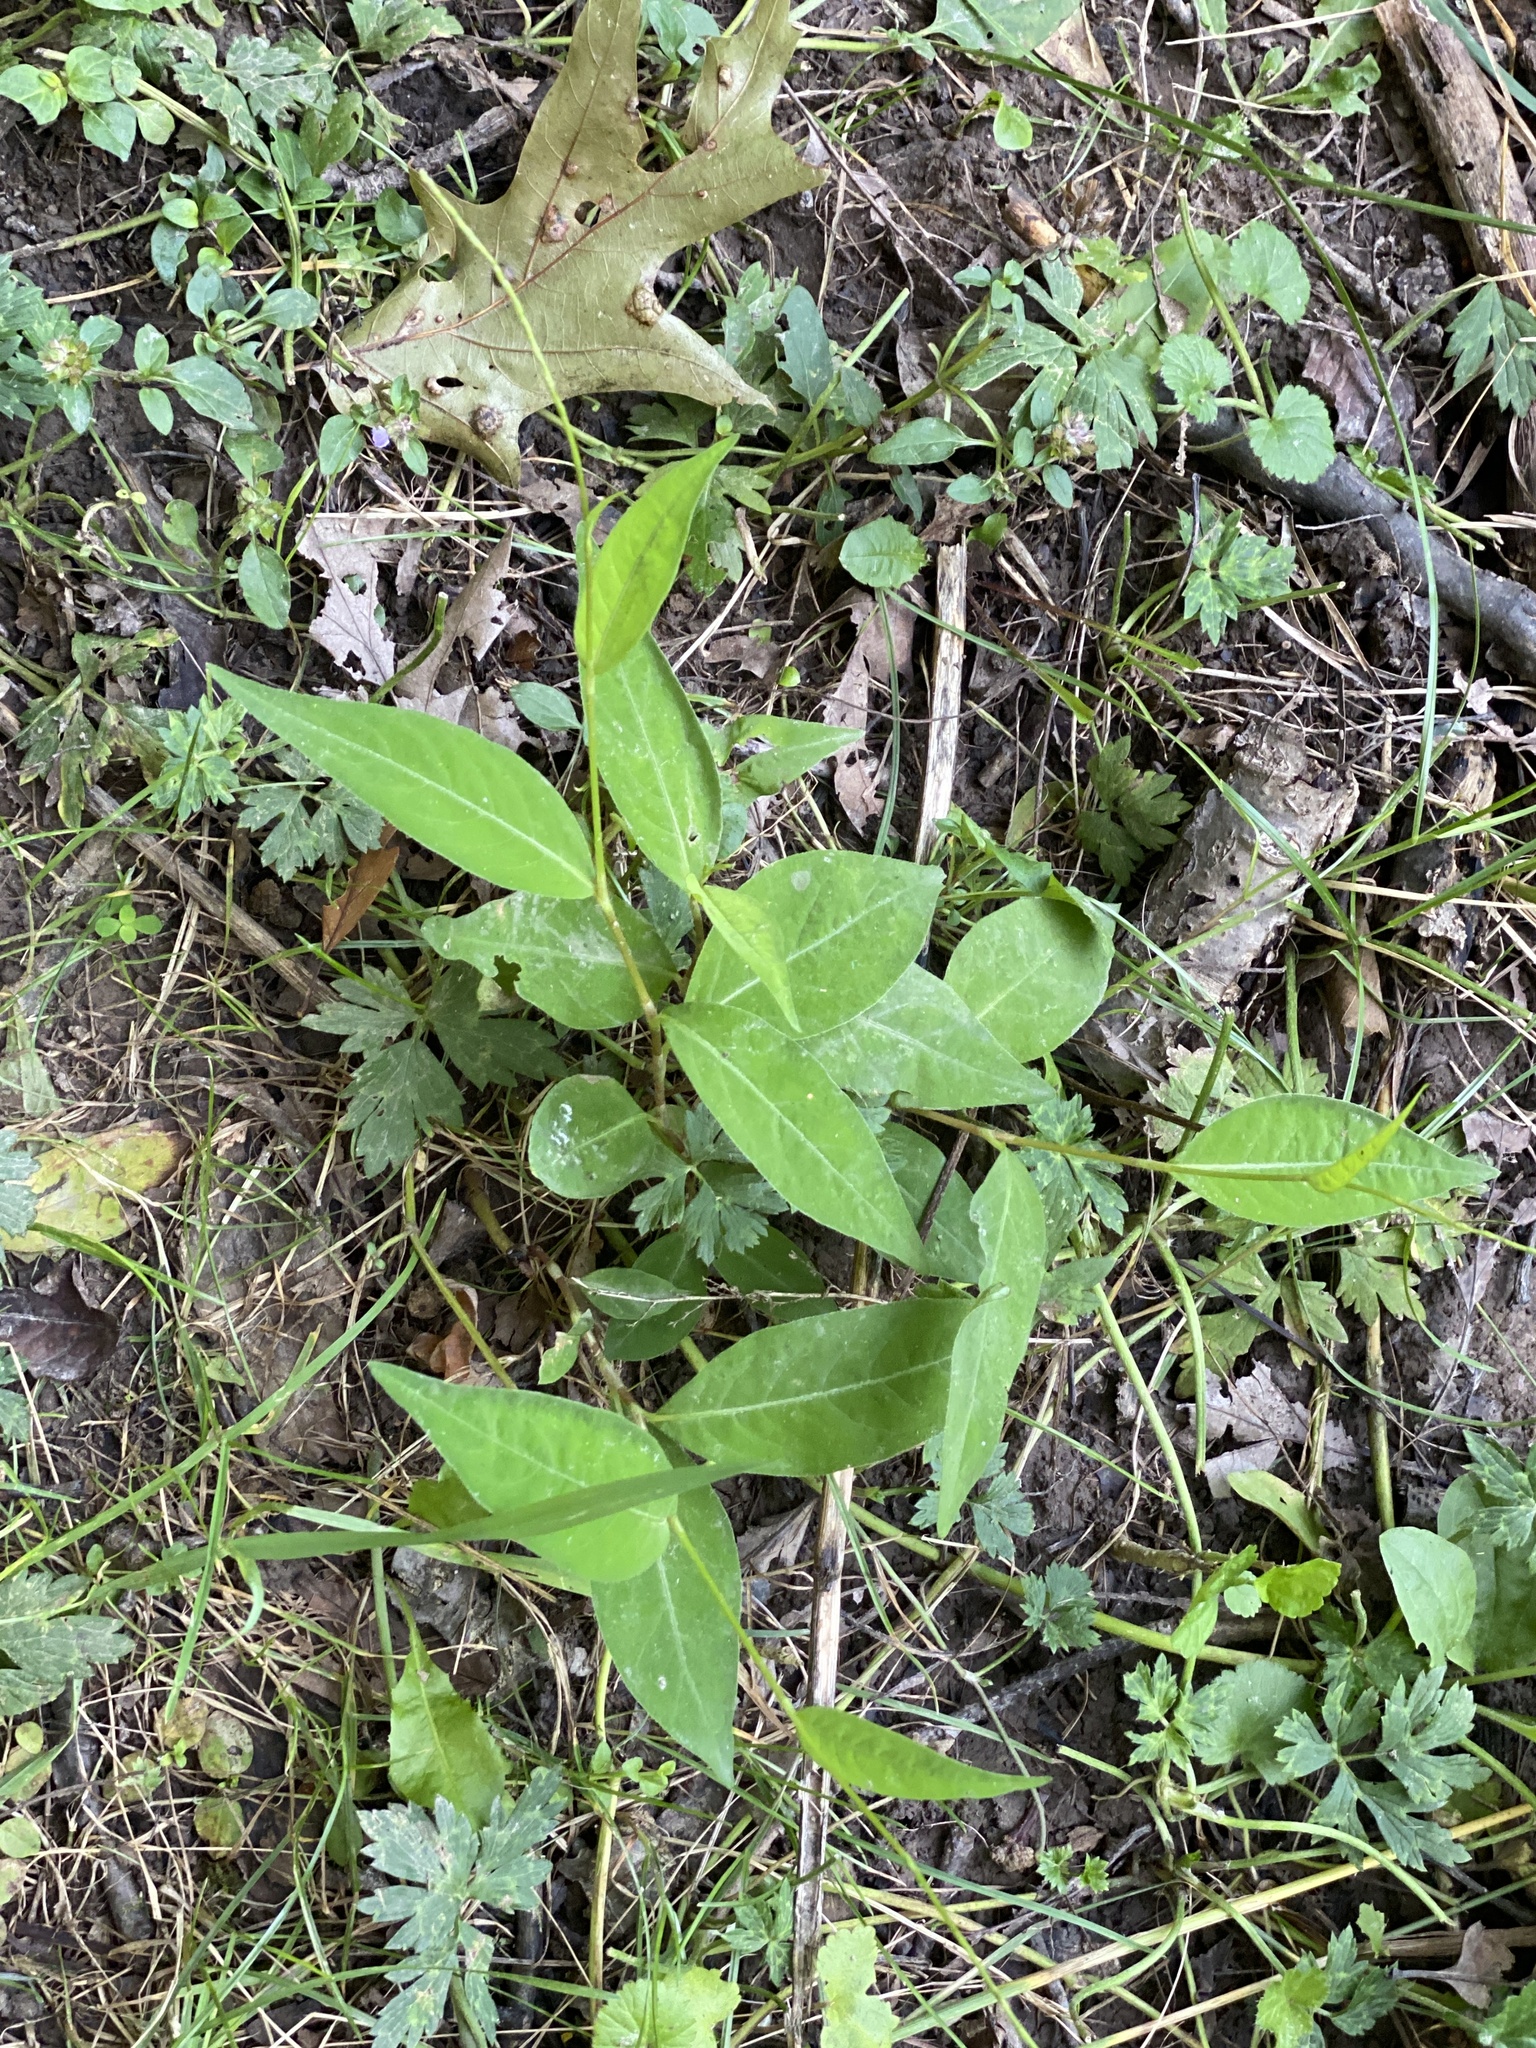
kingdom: Plantae
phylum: Tracheophyta
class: Magnoliopsida
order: Caryophyllales
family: Polygonaceae
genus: Persicaria
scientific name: Persicaria virginiana
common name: Jumpseed
